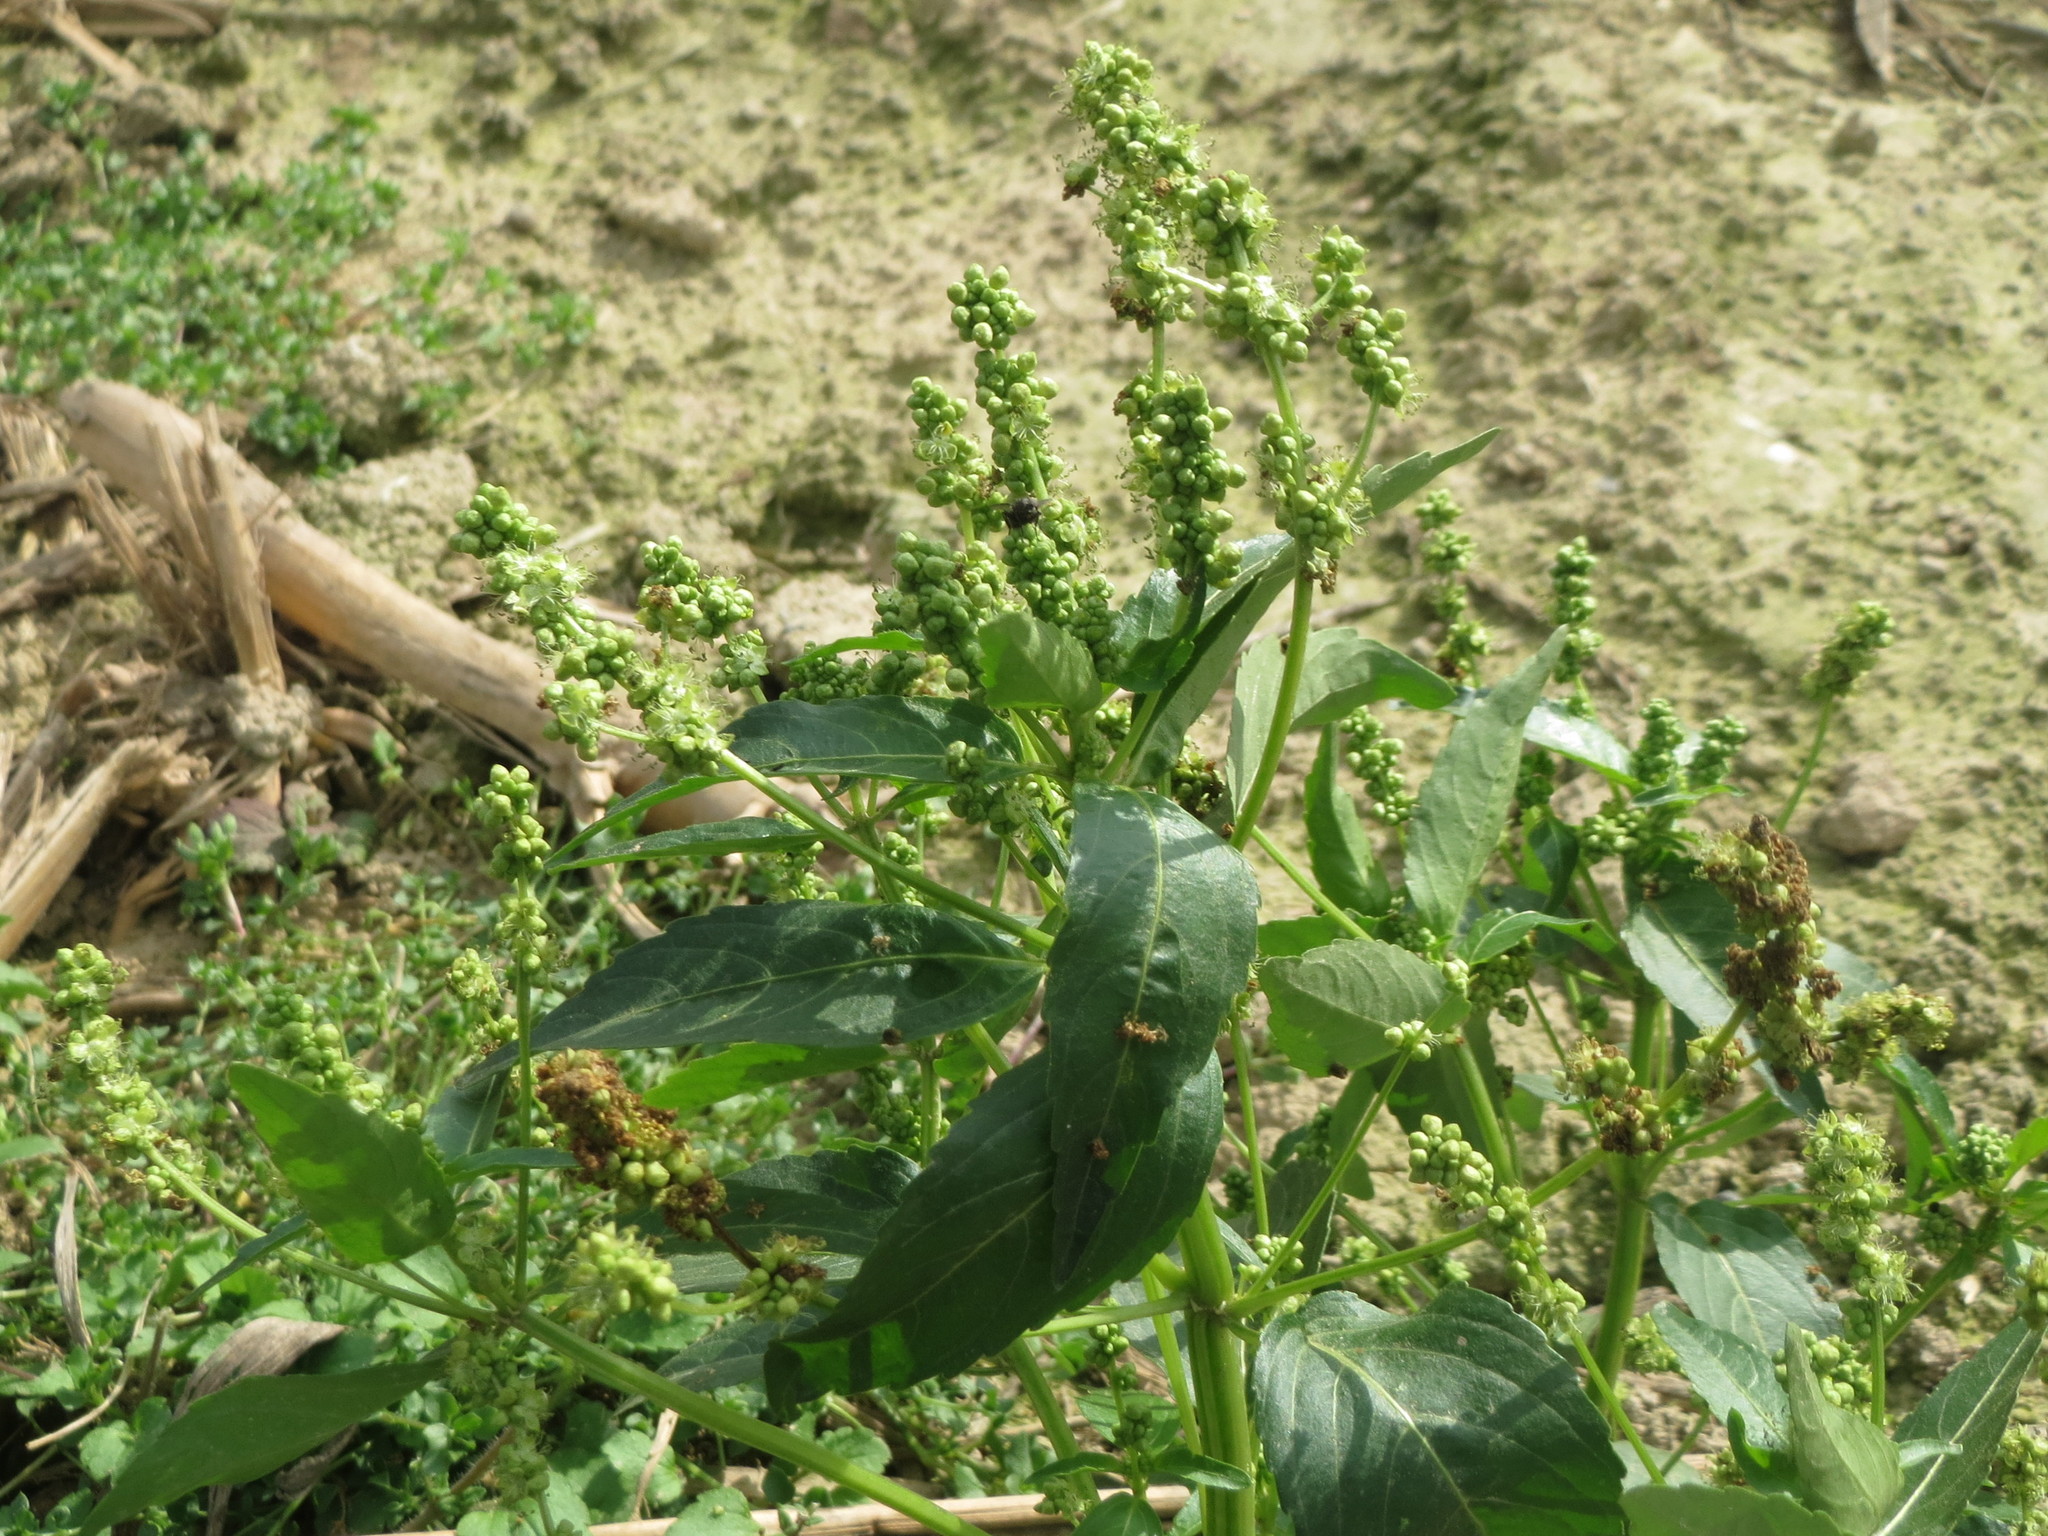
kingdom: Plantae
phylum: Tracheophyta
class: Magnoliopsida
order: Malpighiales
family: Euphorbiaceae
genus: Mercurialis
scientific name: Mercurialis annua
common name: Annual mercury
